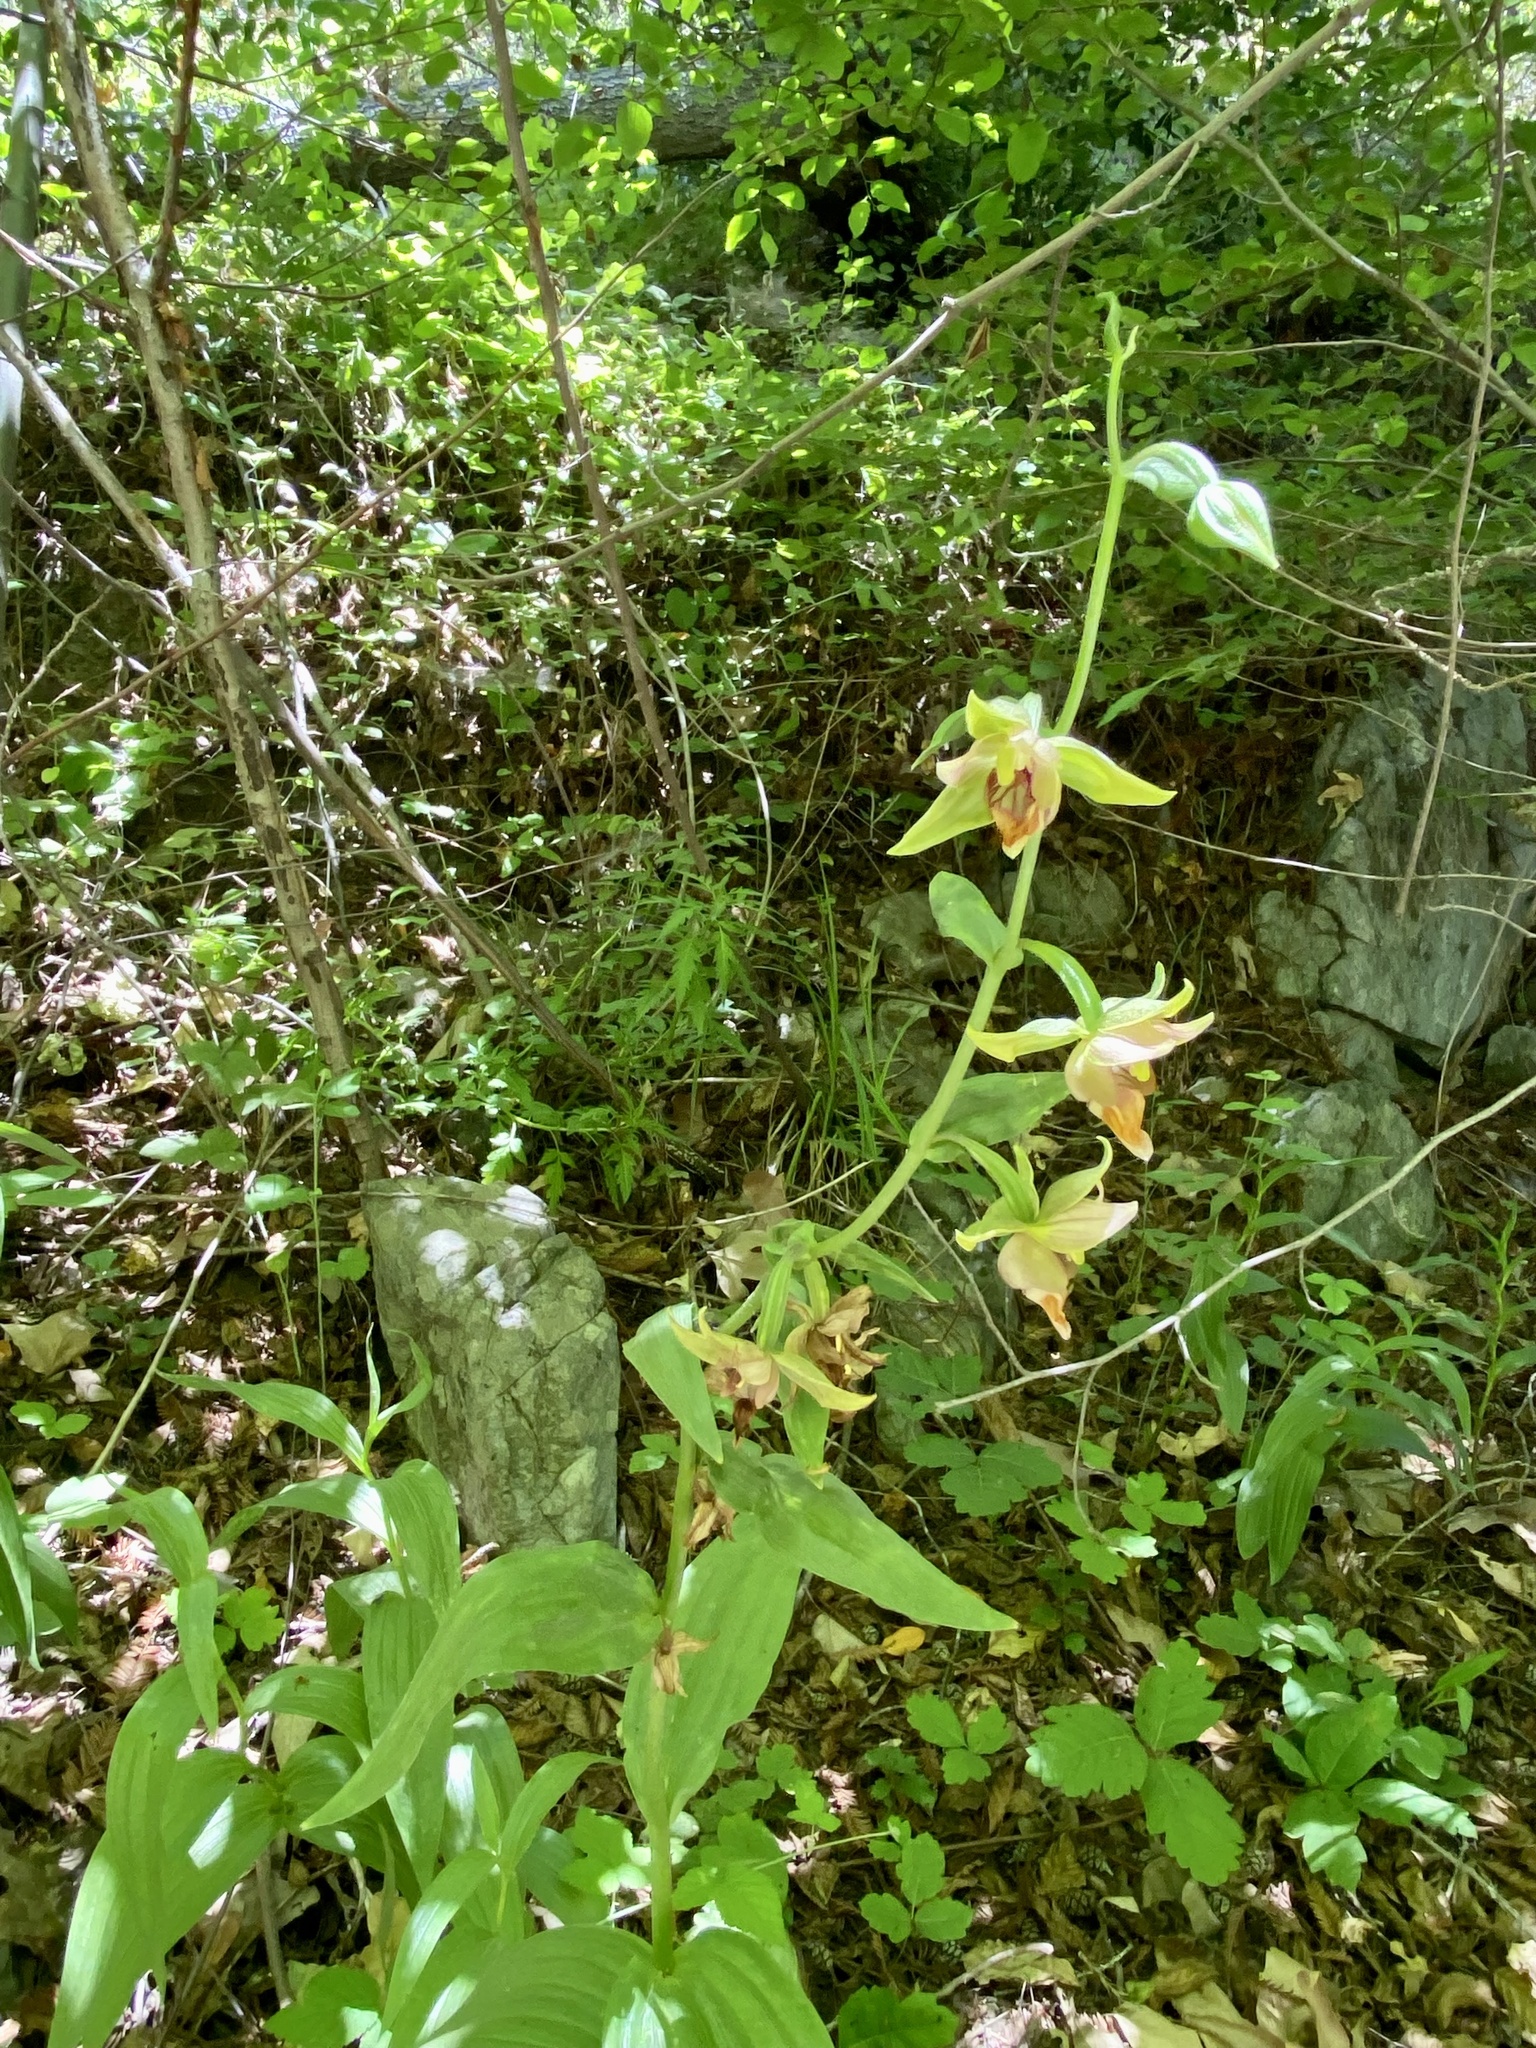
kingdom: Plantae
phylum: Tracheophyta
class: Liliopsida
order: Asparagales
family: Orchidaceae
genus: Epipactis
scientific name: Epipactis gigantea
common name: Chatterbox
